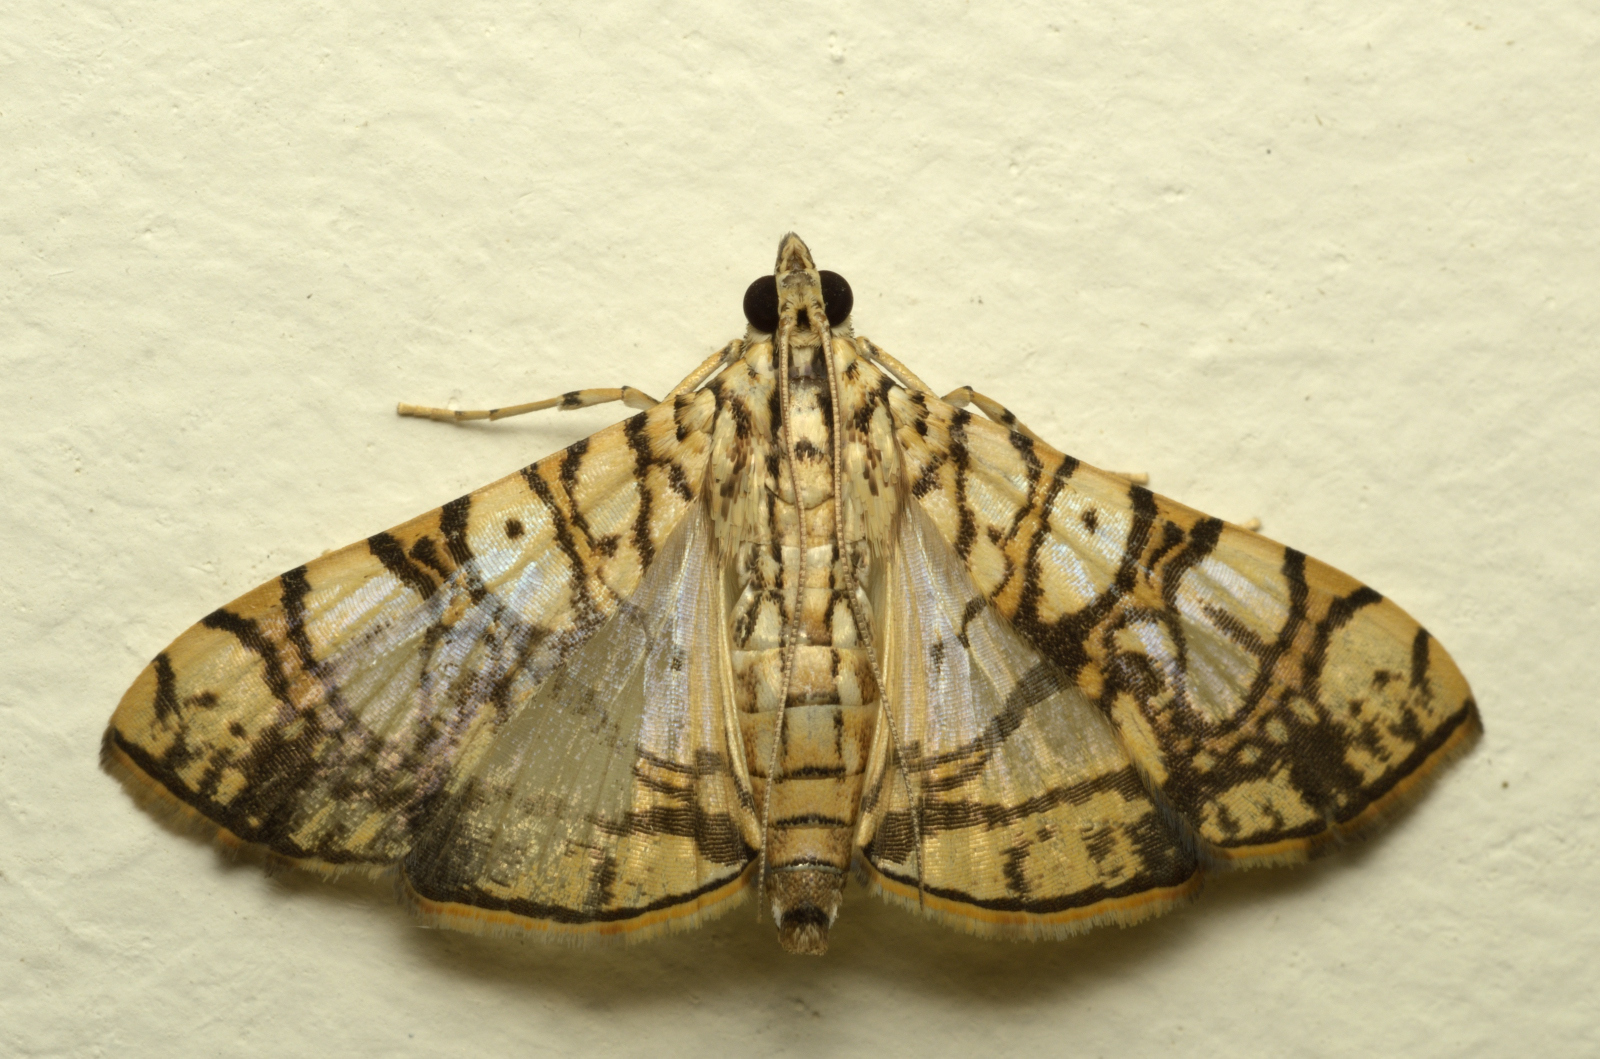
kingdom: Animalia
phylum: Arthropoda
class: Insecta
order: Lepidoptera
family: Crambidae
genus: Glyphodes
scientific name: Glyphodes caesalis
